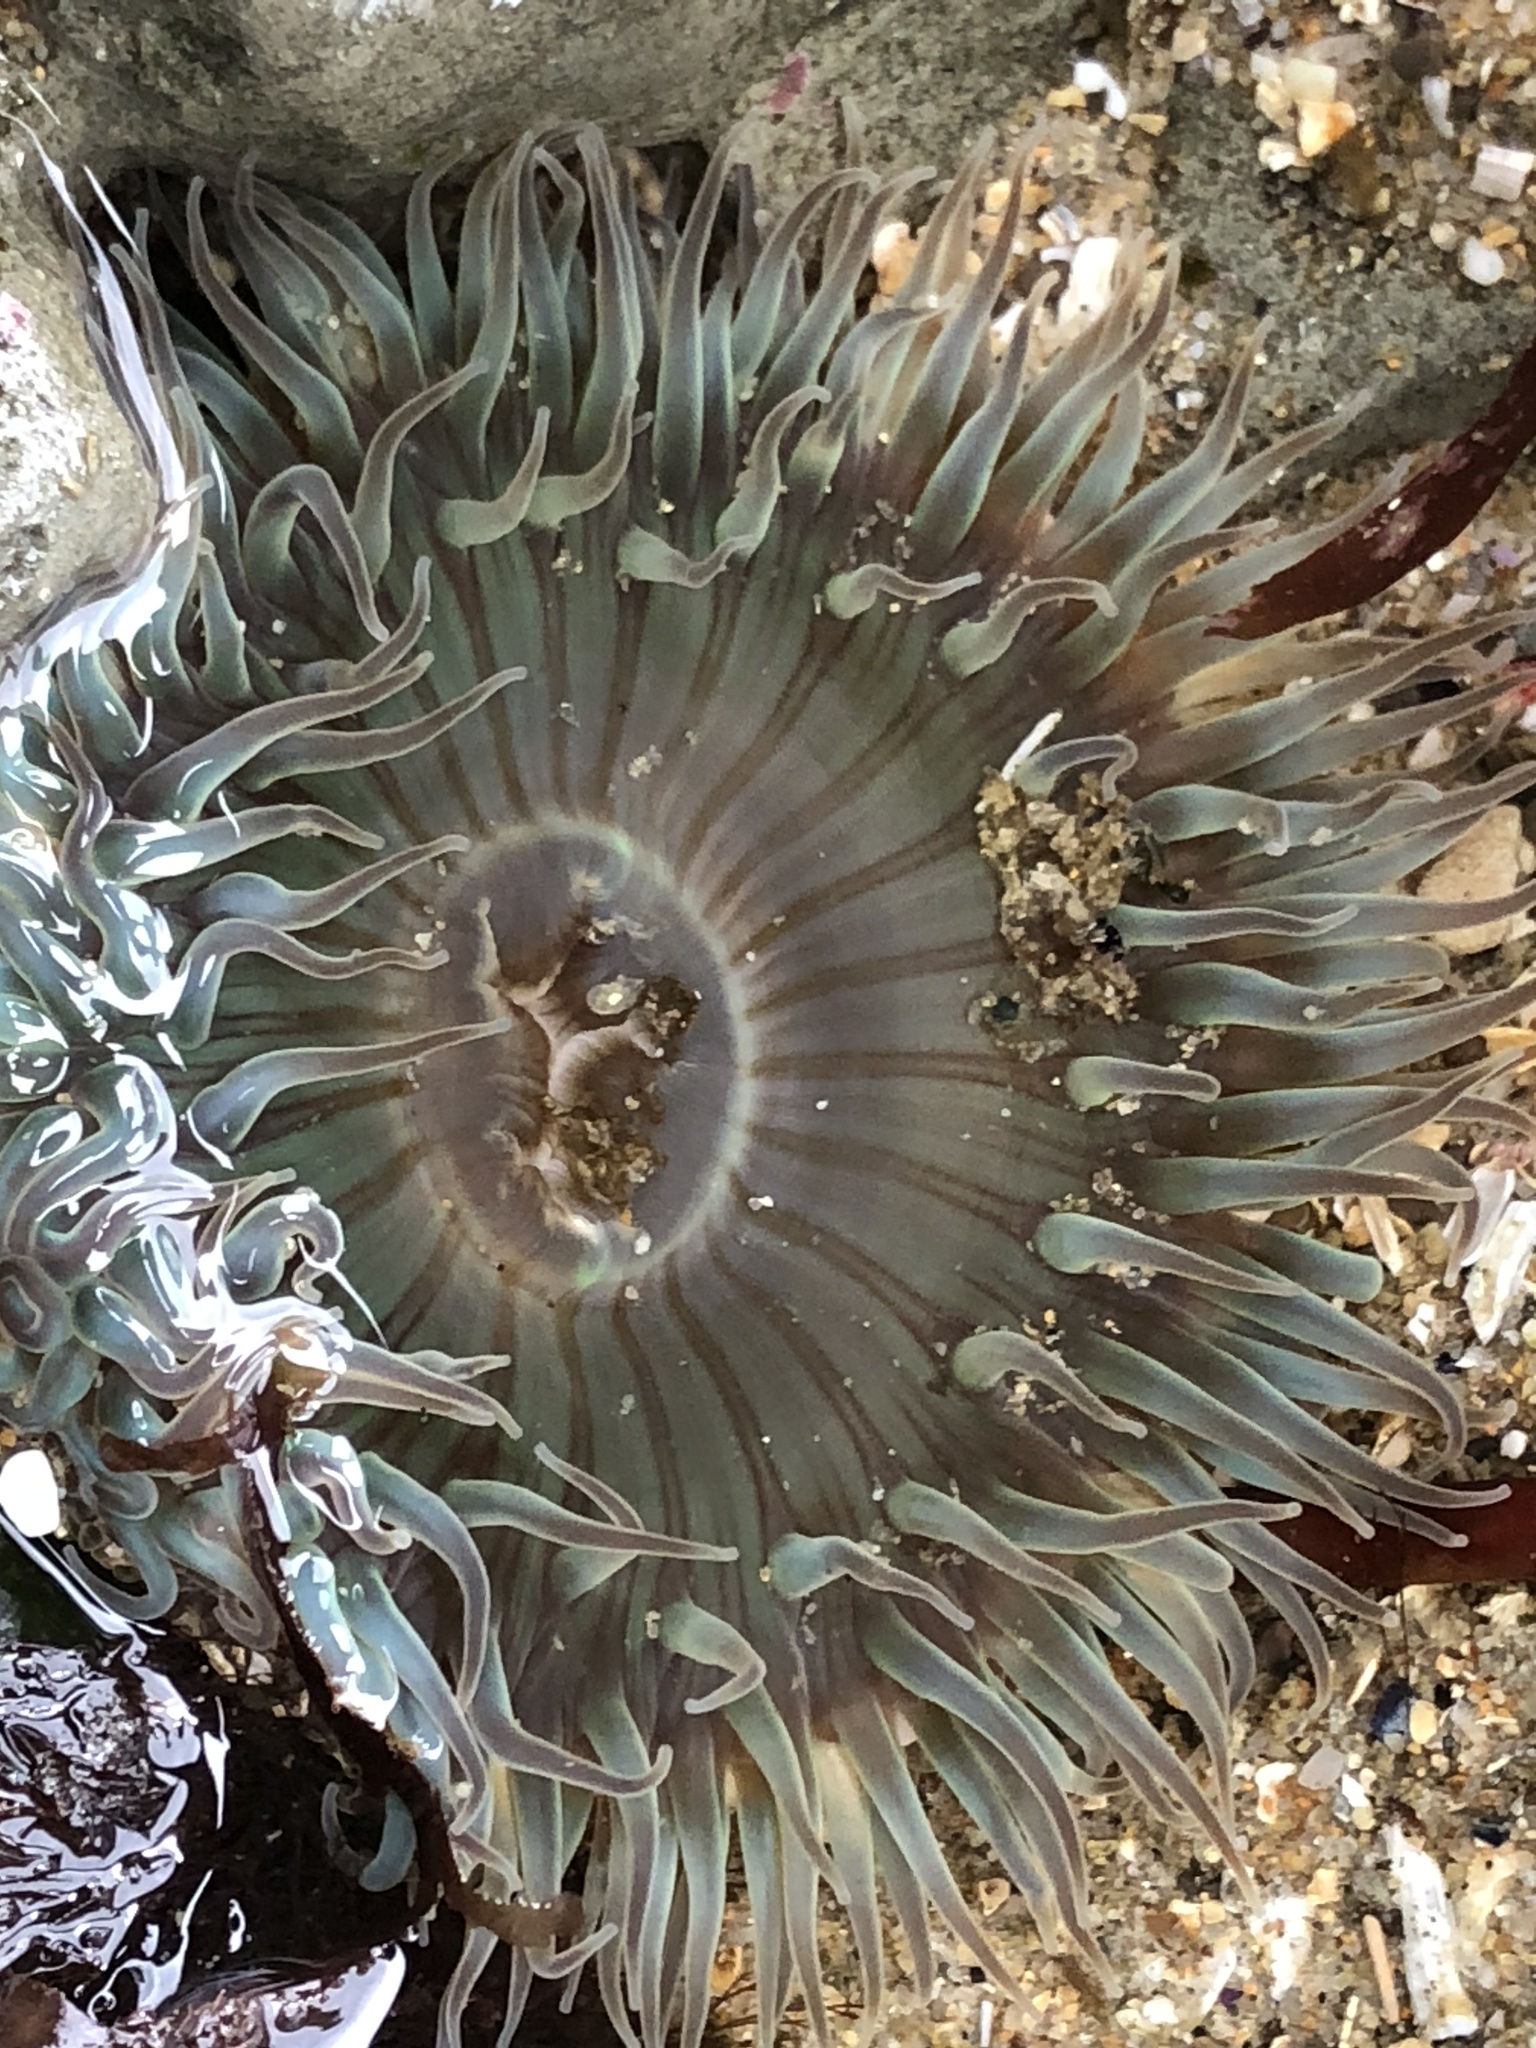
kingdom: Animalia
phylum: Cnidaria
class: Anthozoa
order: Actiniaria
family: Actiniidae
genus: Anthopleura
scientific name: Anthopleura sola
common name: Sun anemone
